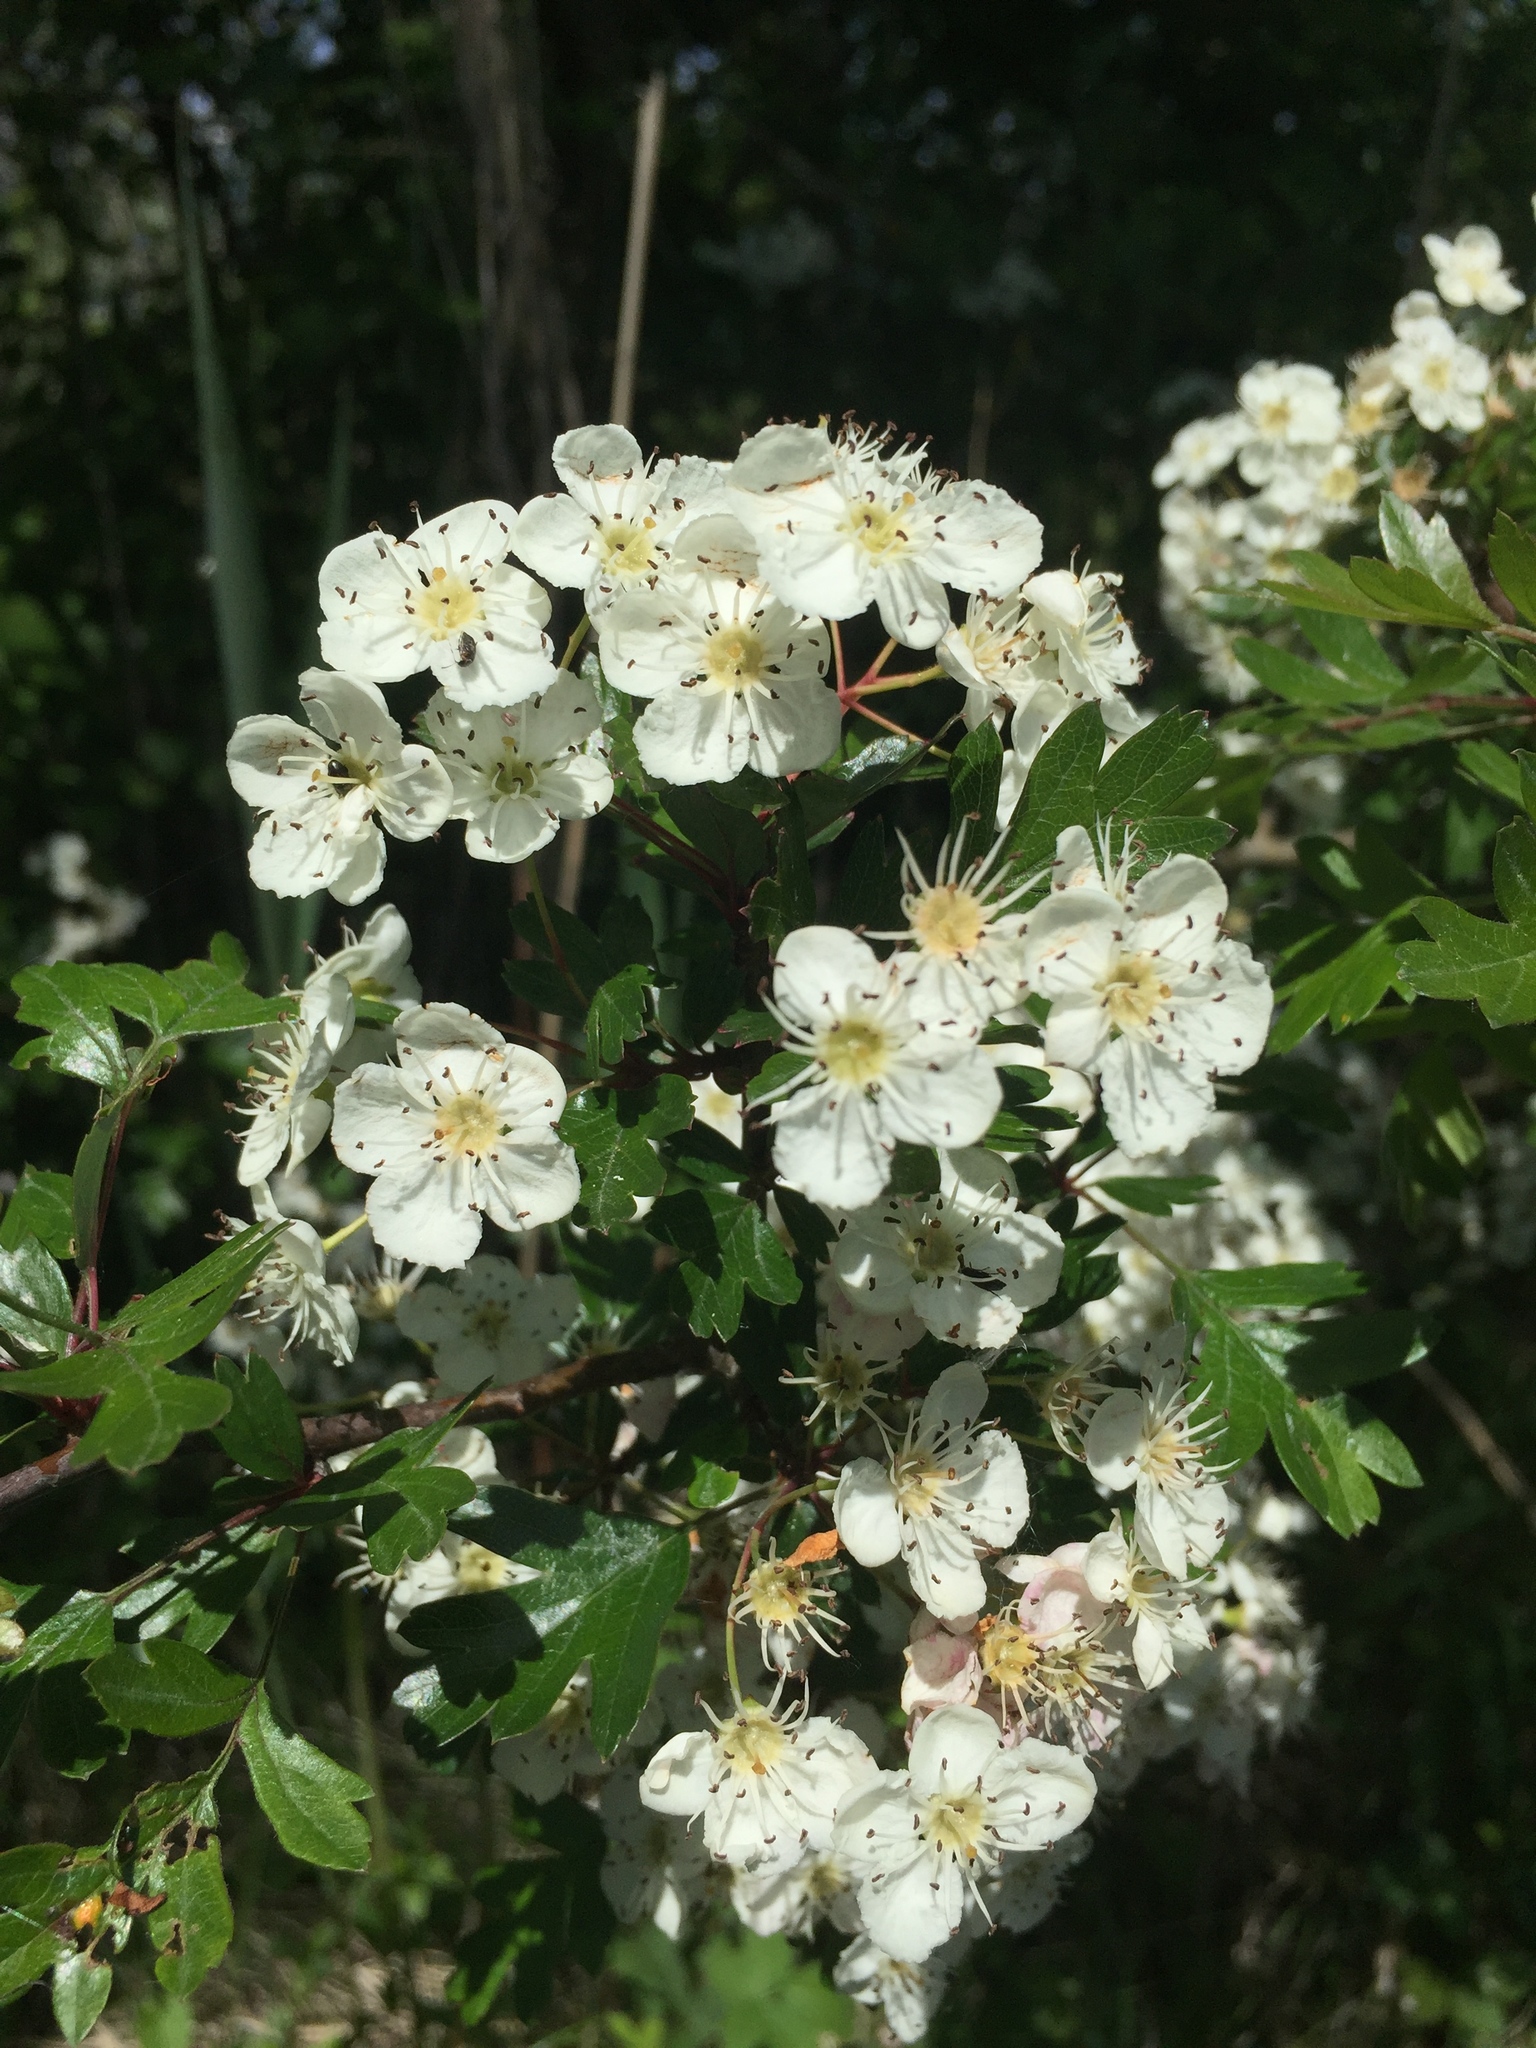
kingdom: Plantae
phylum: Tracheophyta
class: Magnoliopsida
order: Rosales
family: Rosaceae
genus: Crataegus
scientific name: Crataegus monogyna
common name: Hawthorn
